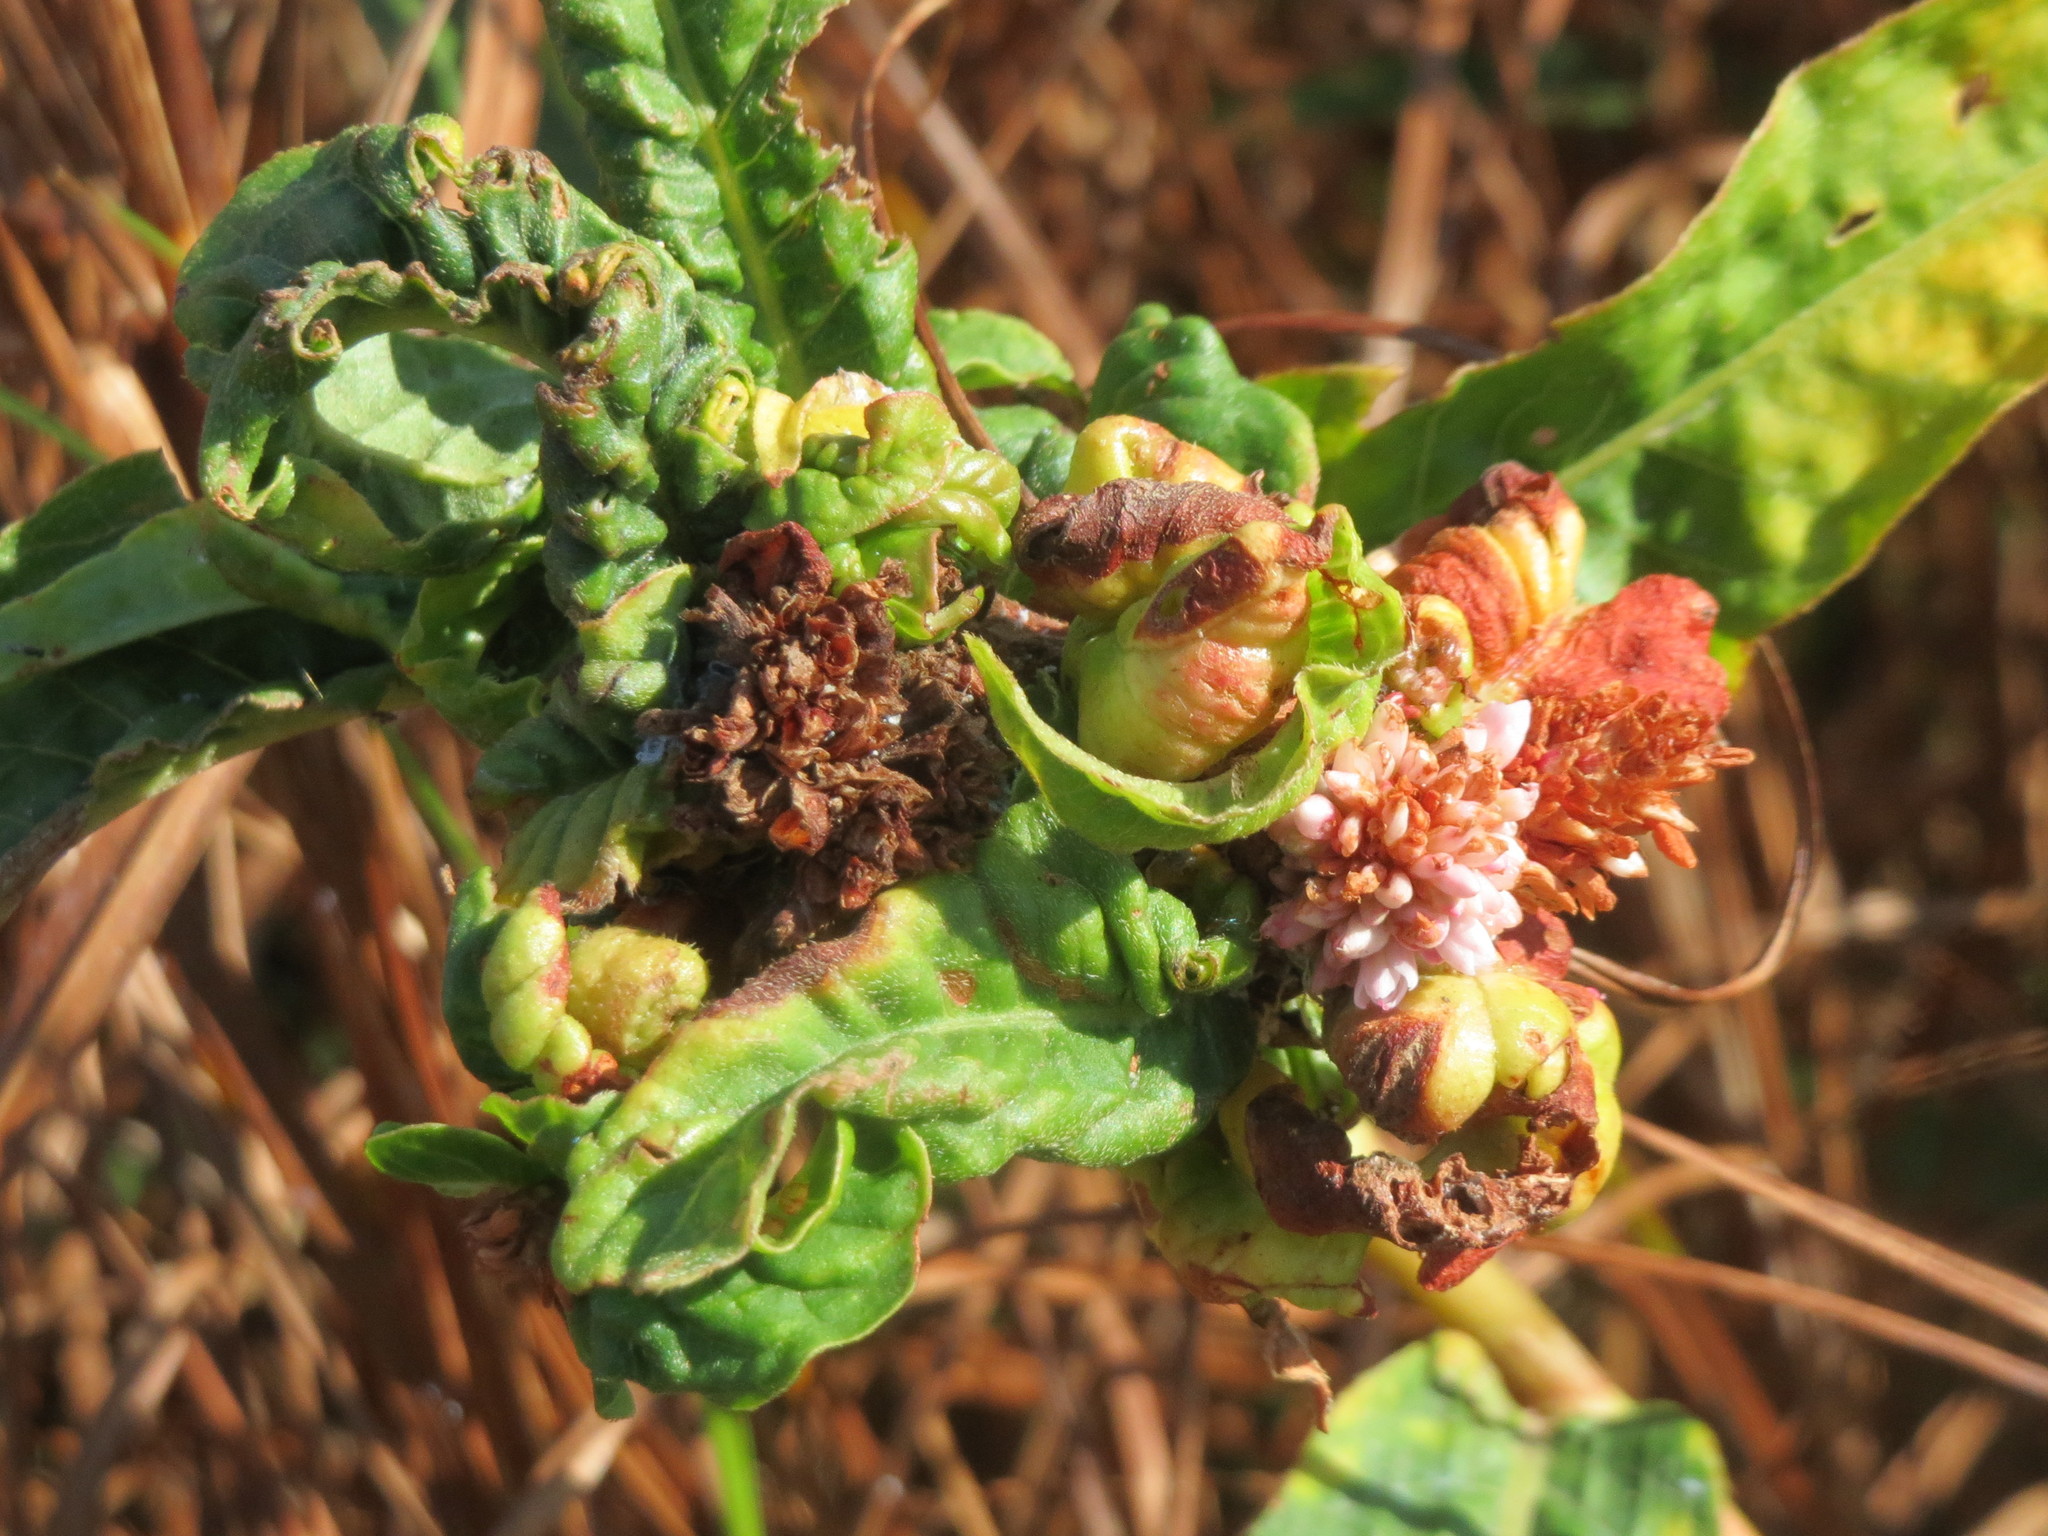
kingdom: Plantae
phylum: Tracheophyta
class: Magnoliopsida
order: Caryophyllales
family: Polygonaceae
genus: Persicaria
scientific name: Persicaria amphibia
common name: Amphibious bistort
